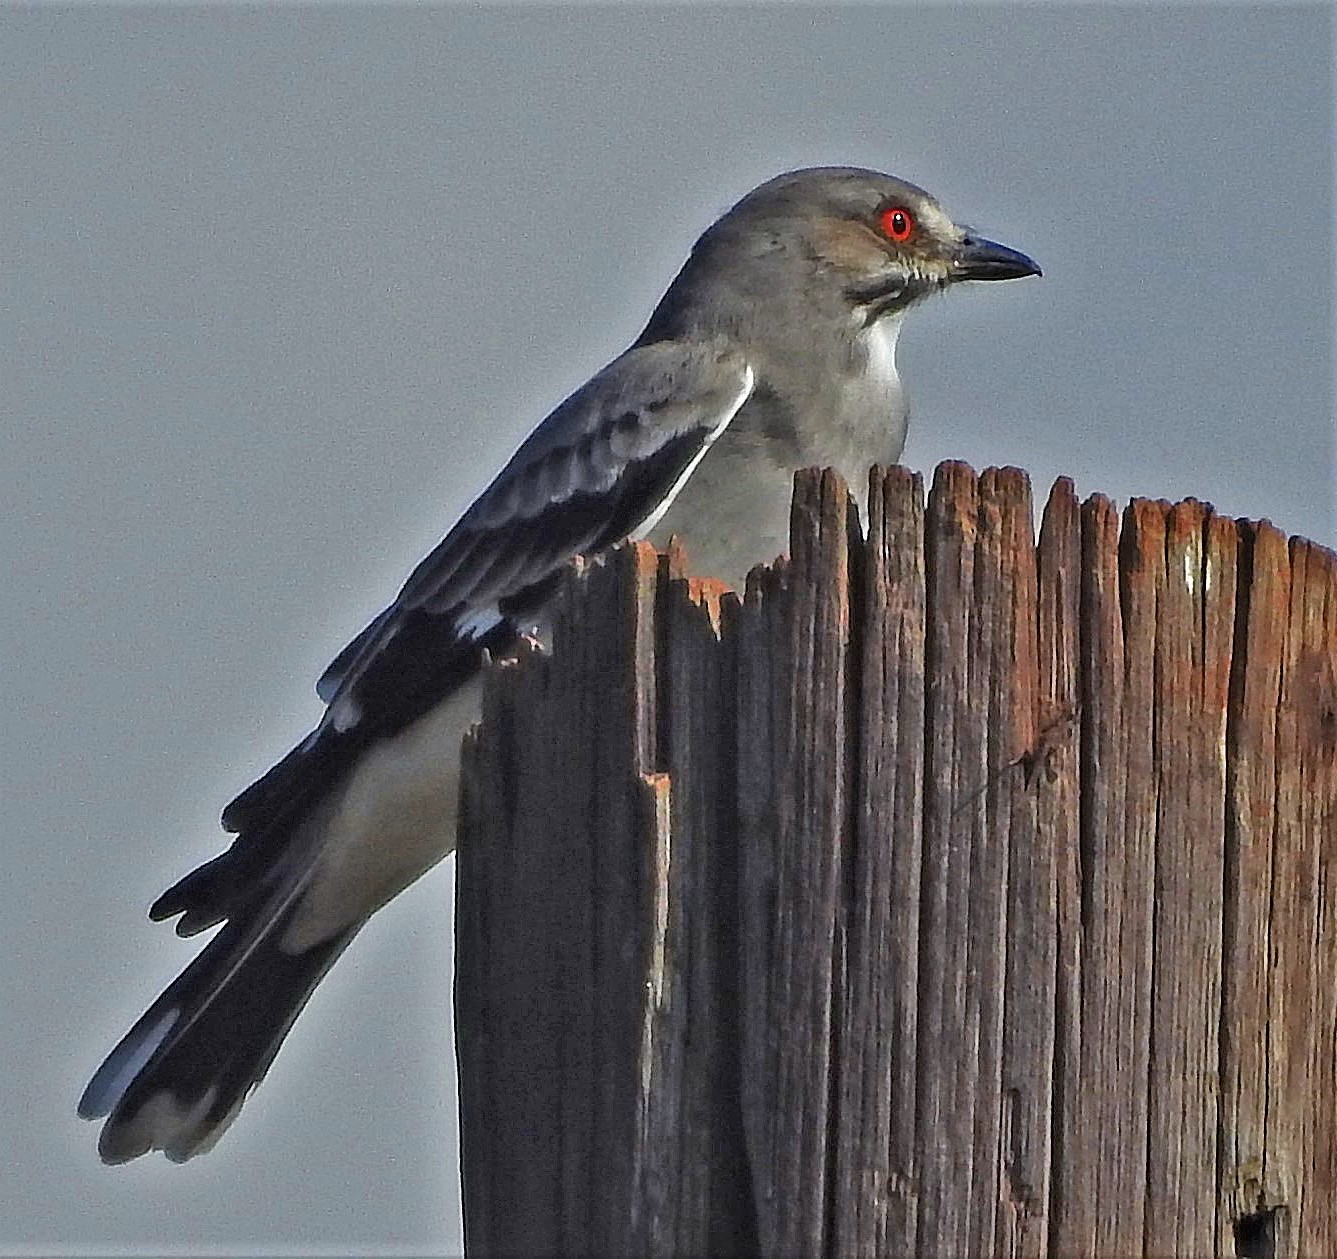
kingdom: Animalia
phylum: Chordata
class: Aves
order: Passeriformes
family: Tyrannidae
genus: Xolmis
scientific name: Xolmis cinereus
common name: Grey monjita
